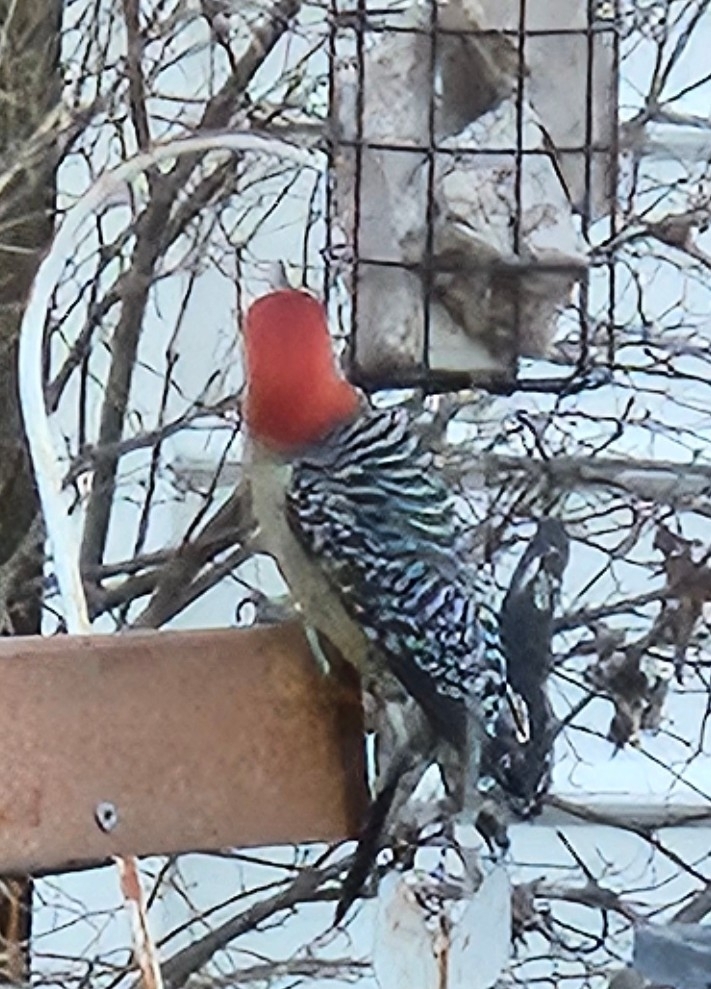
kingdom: Animalia
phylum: Chordata
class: Aves
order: Piciformes
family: Picidae
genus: Melanerpes
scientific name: Melanerpes carolinus
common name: Red-bellied woodpecker
